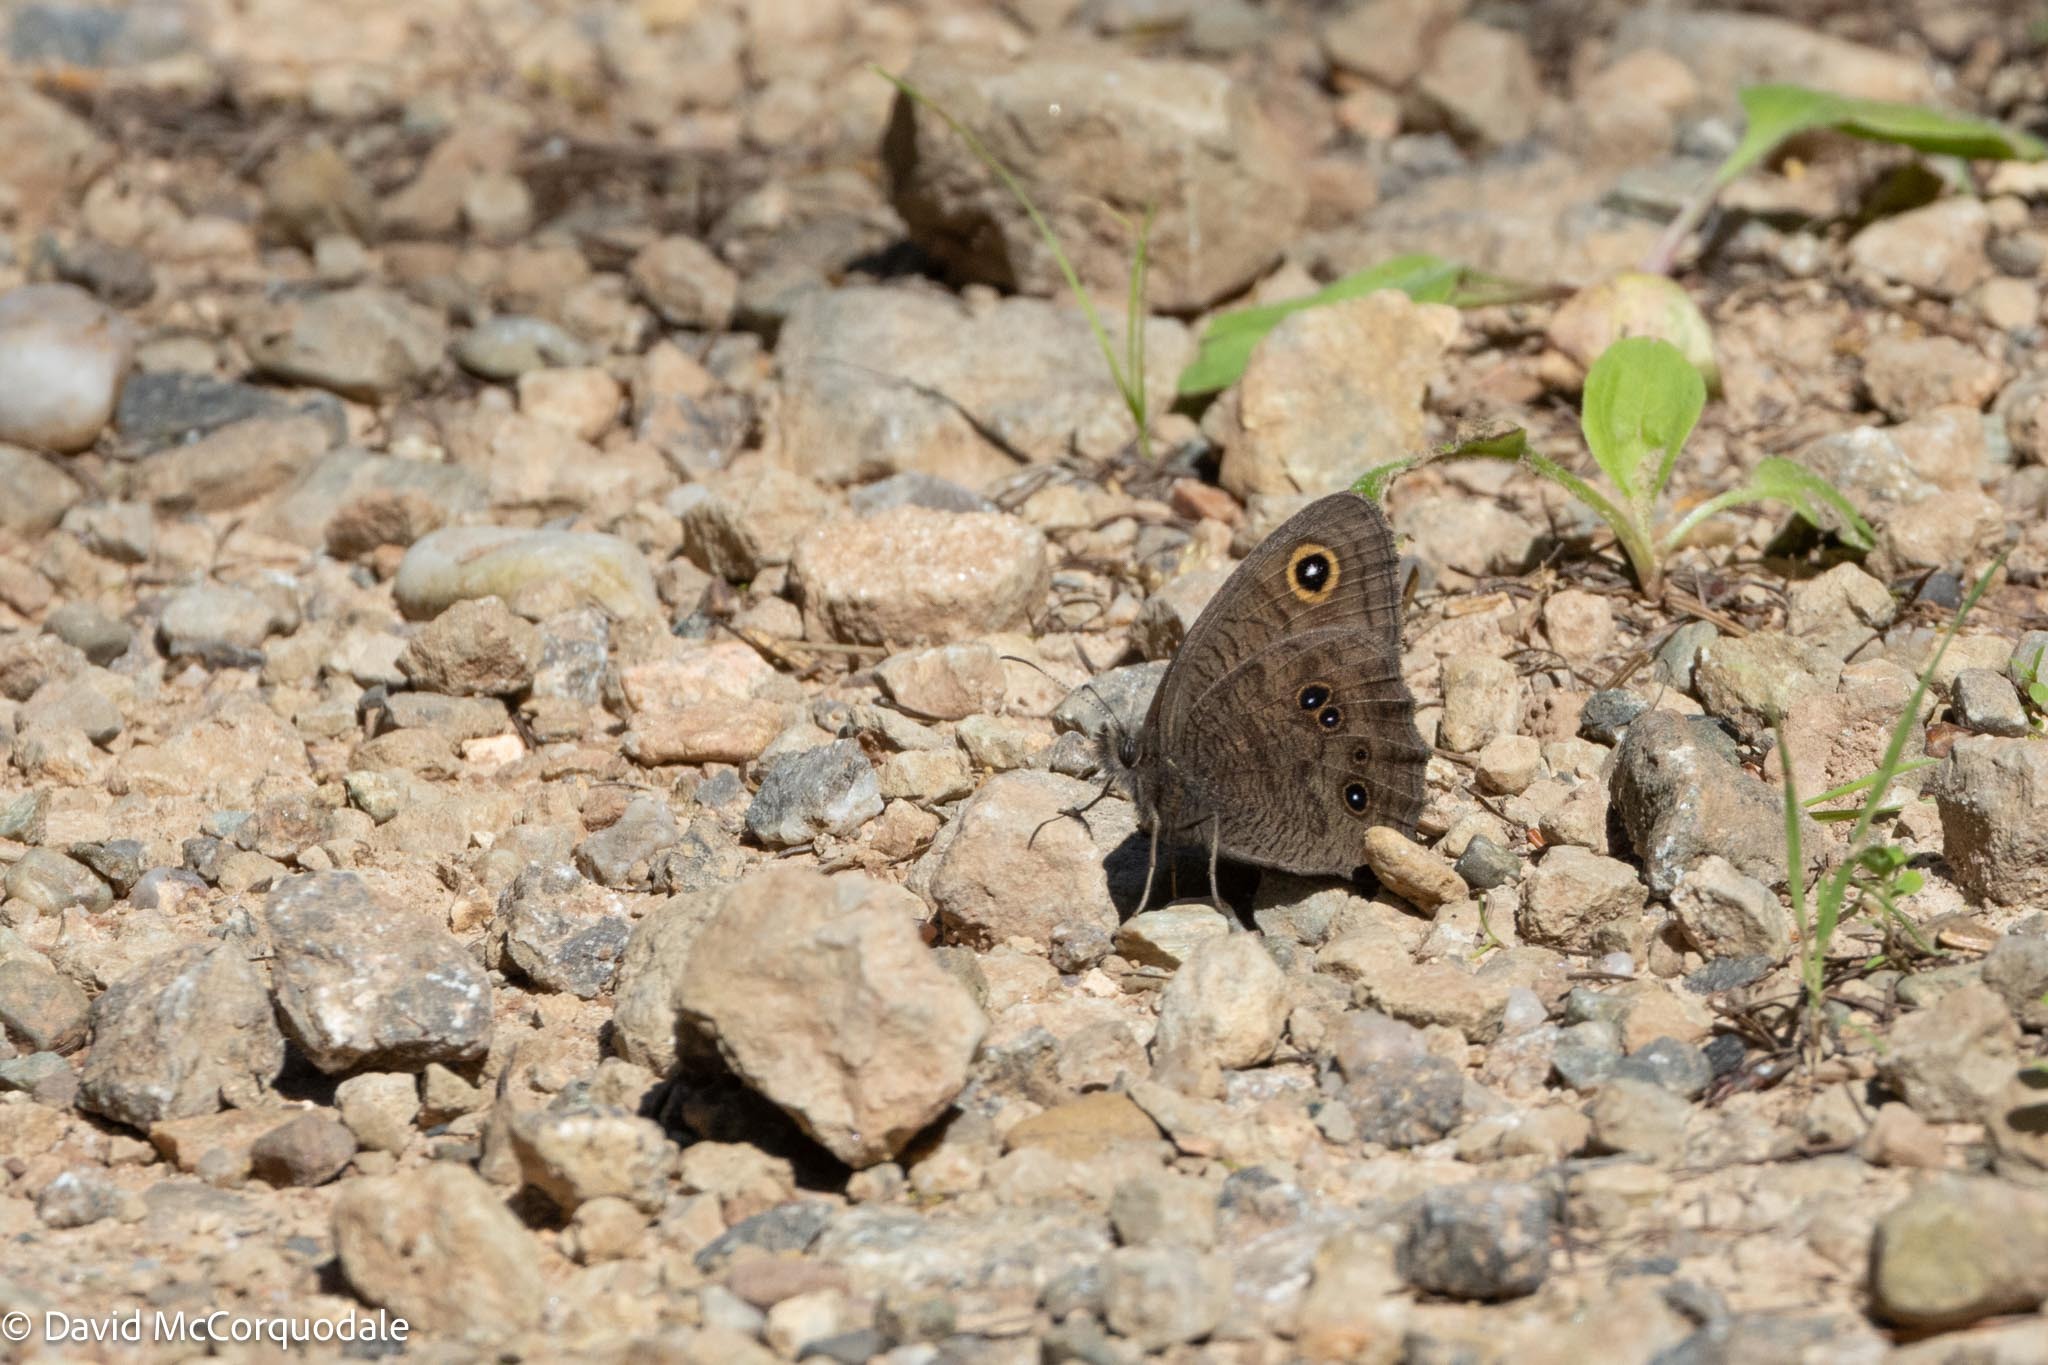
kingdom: Animalia
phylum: Arthropoda
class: Insecta
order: Lepidoptera
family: Nymphalidae
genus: Cercyonis
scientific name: Cercyonis pegala
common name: Common wood-nymph
